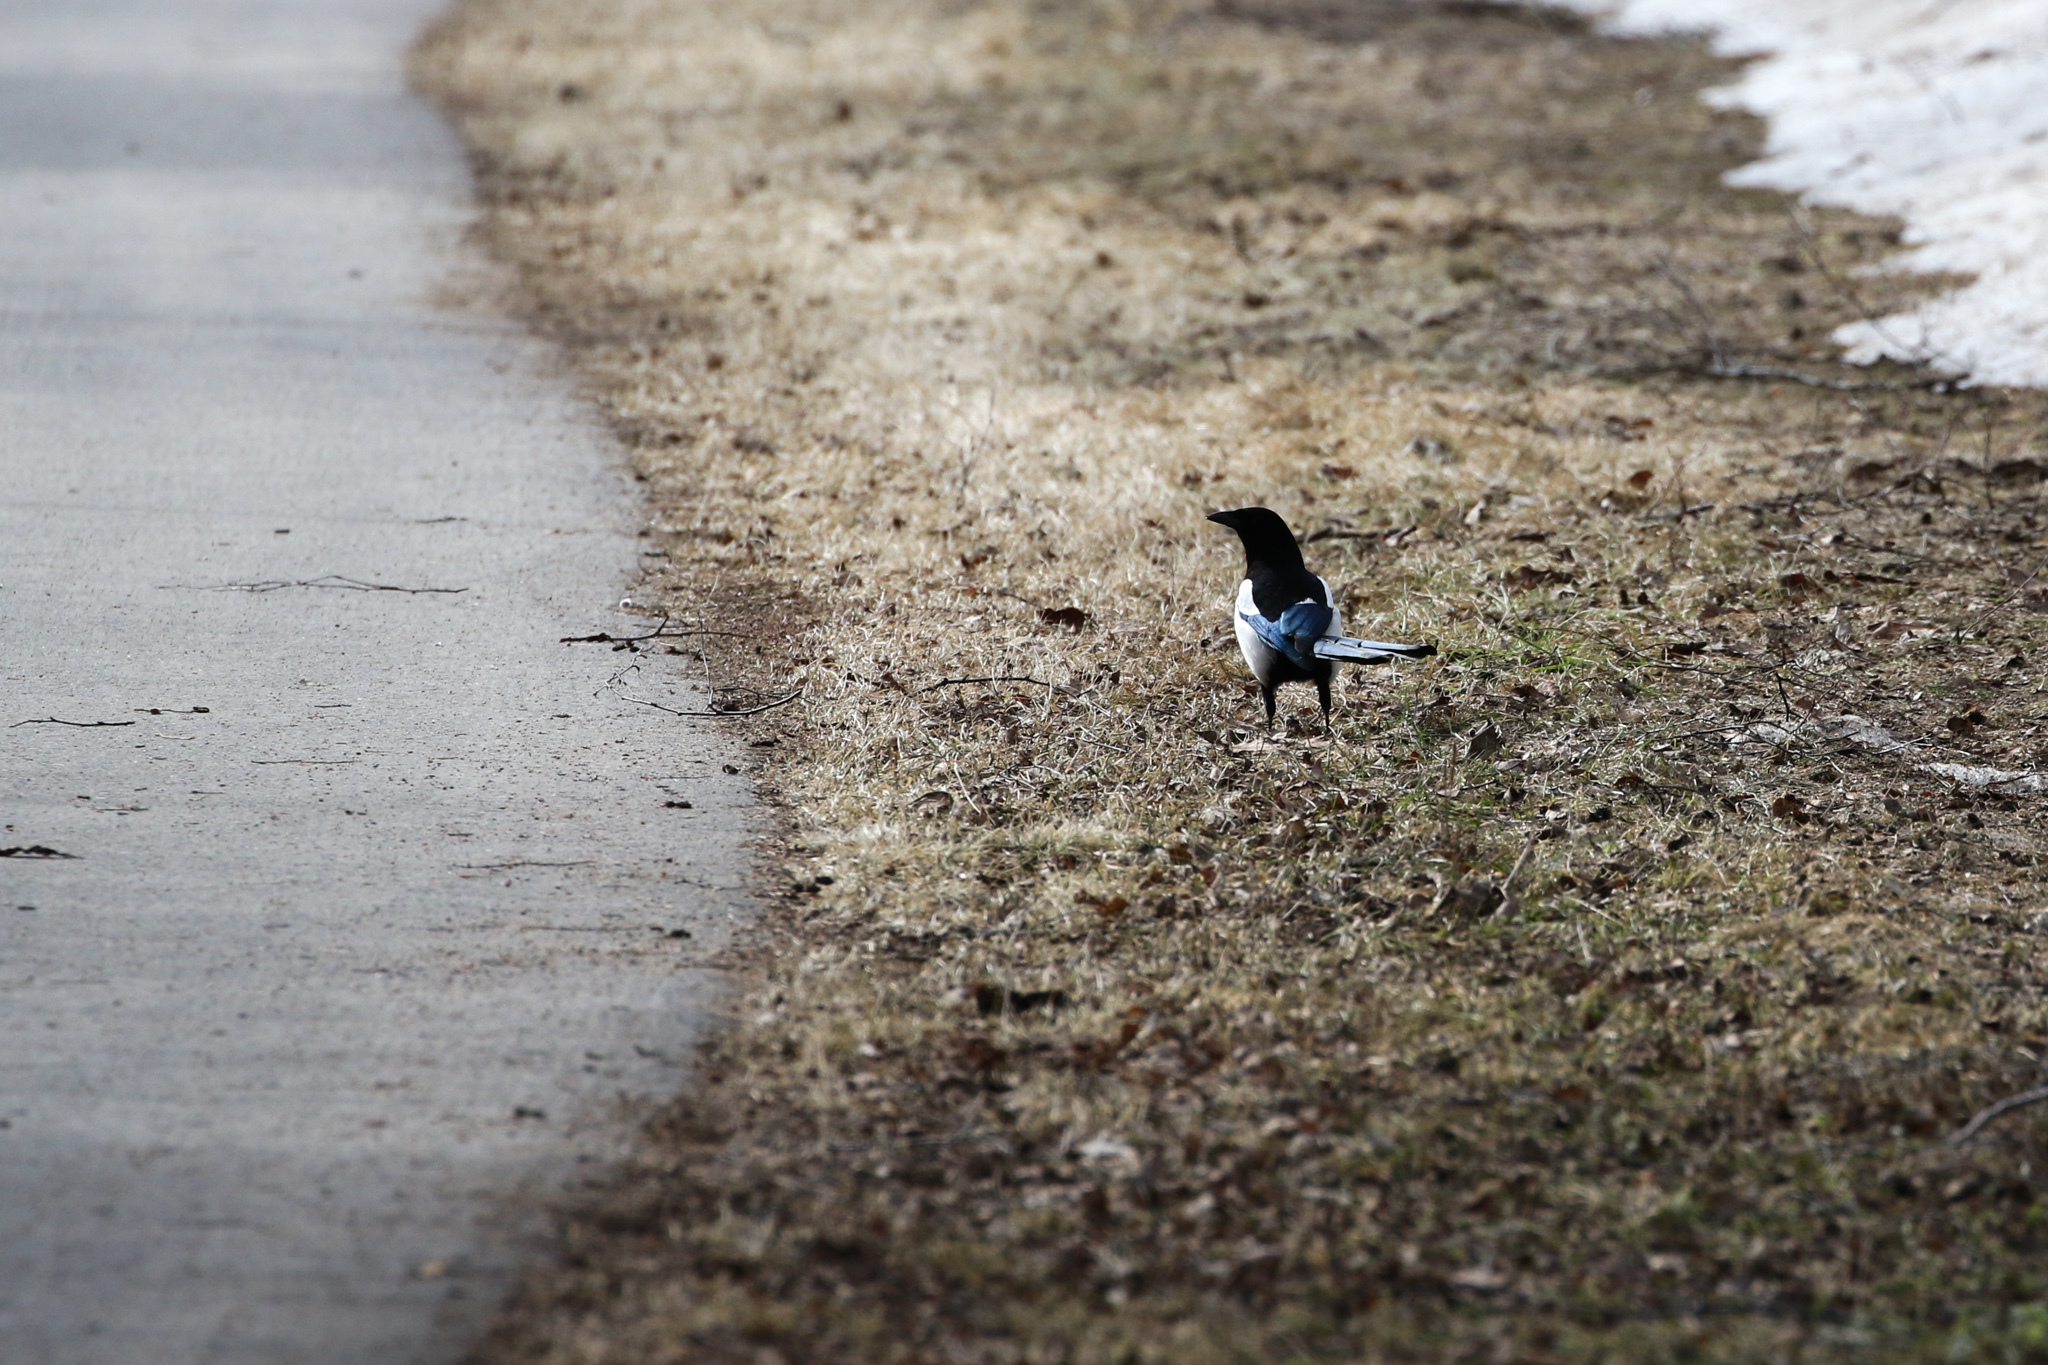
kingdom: Animalia
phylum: Chordata
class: Aves
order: Passeriformes
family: Corvidae
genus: Pica
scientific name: Pica pica
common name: Eurasian magpie
